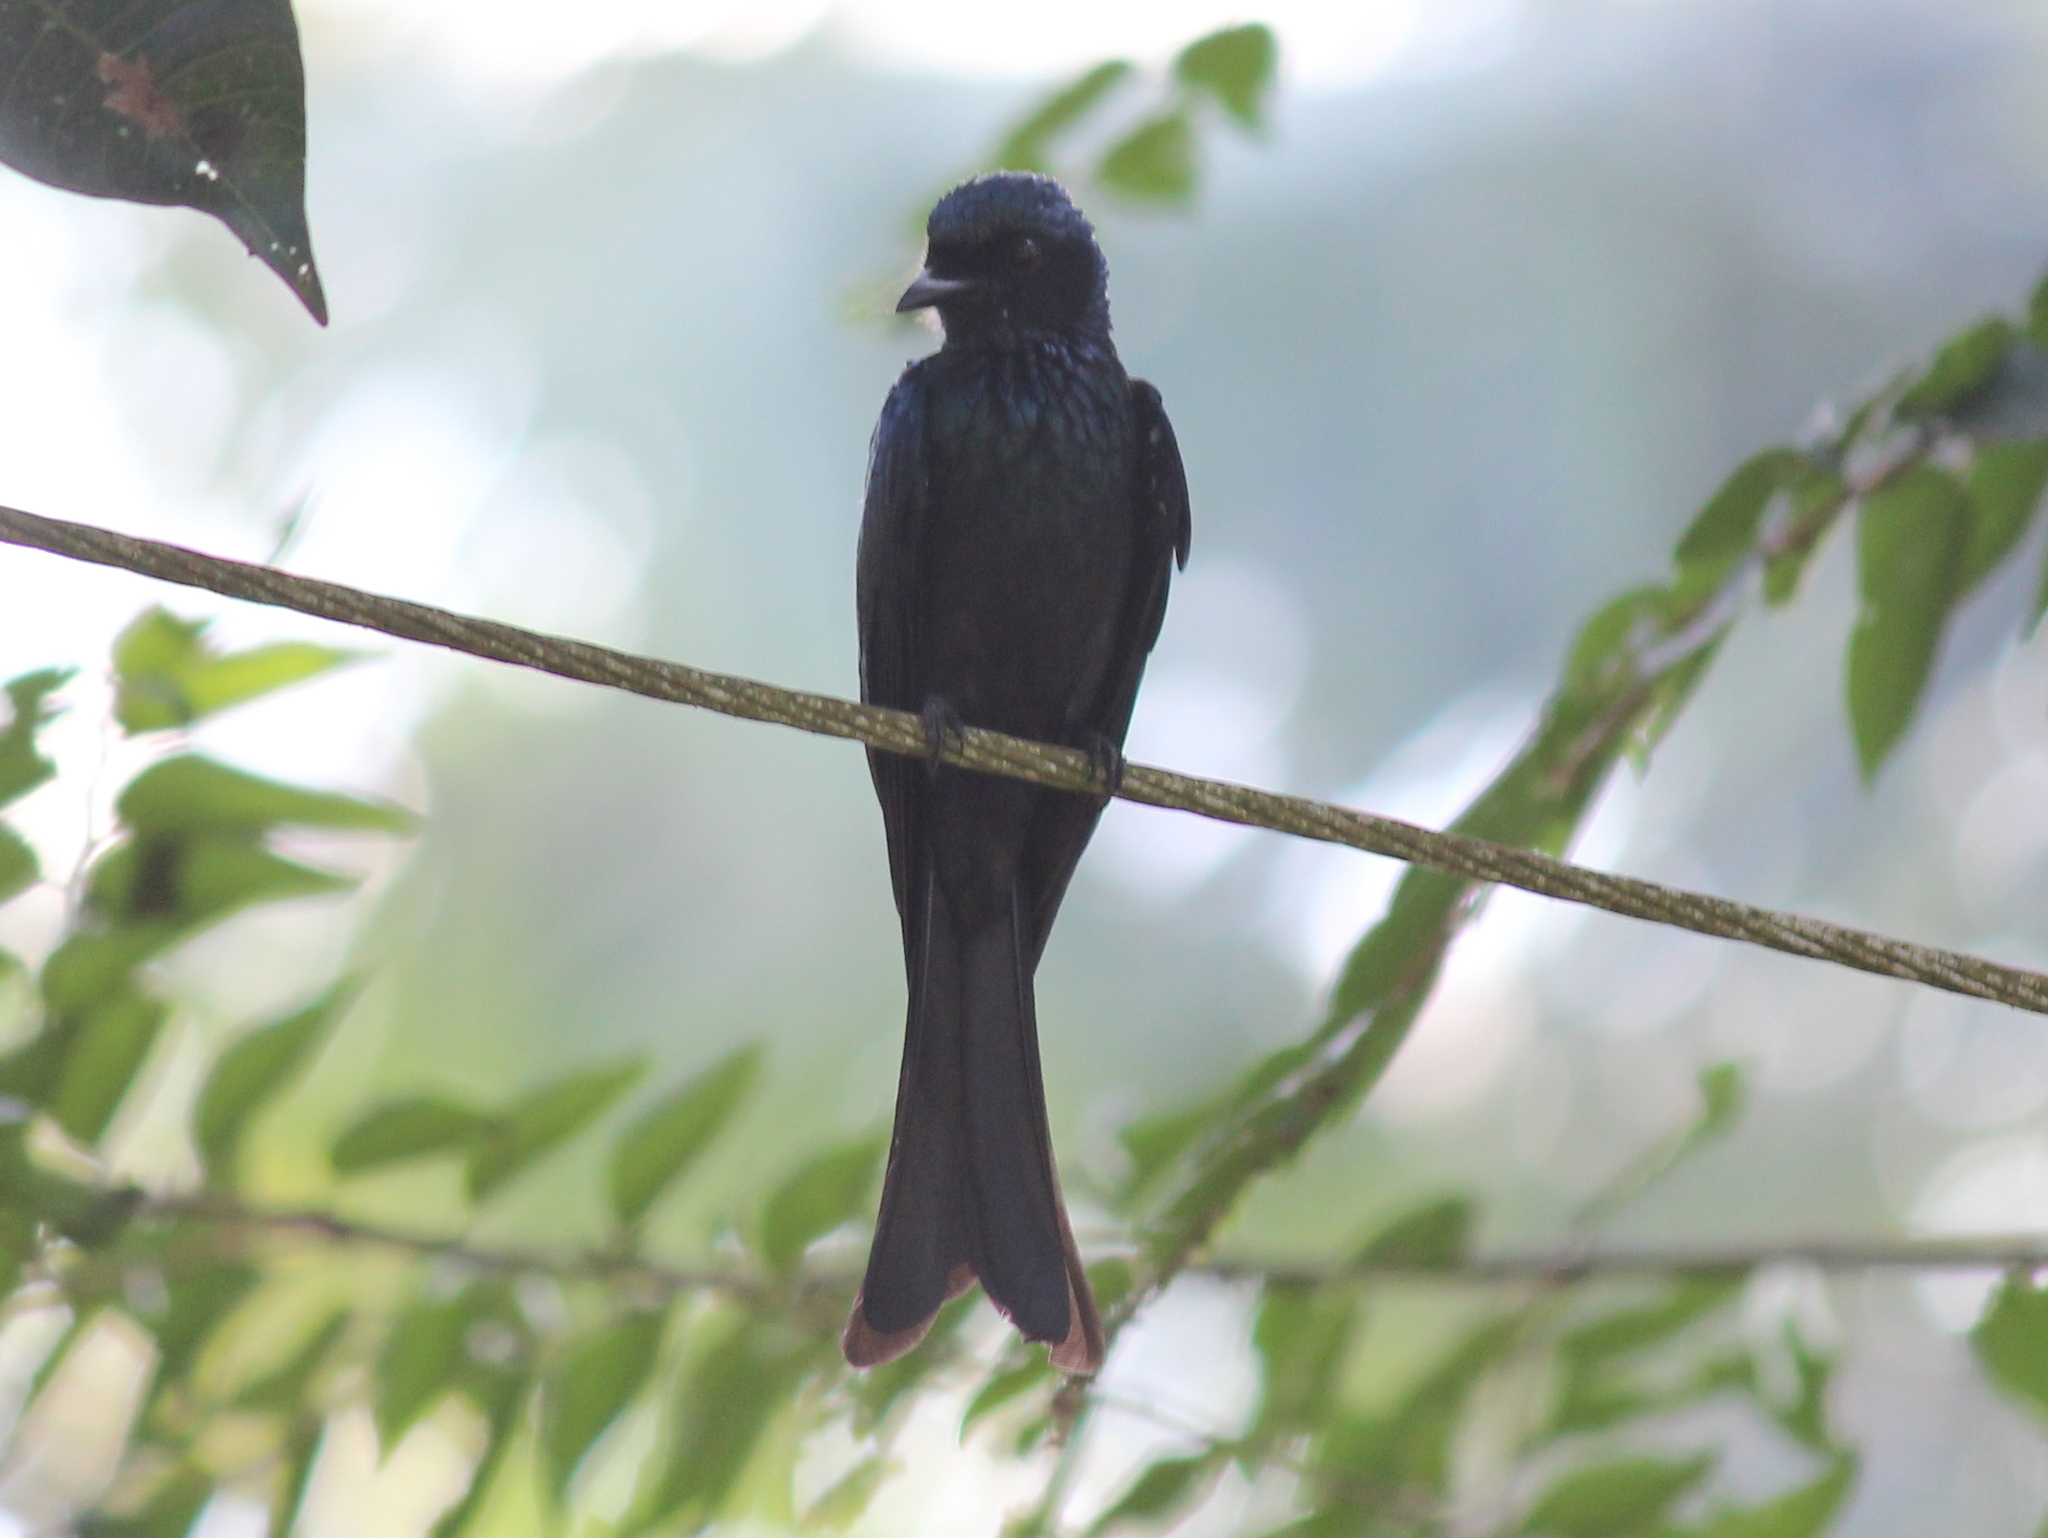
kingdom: Animalia
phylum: Chordata
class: Aves
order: Passeriformes
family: Dicruridae
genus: Dicrurus
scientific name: Dicrurus aeneus
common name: Bronzed drongo
